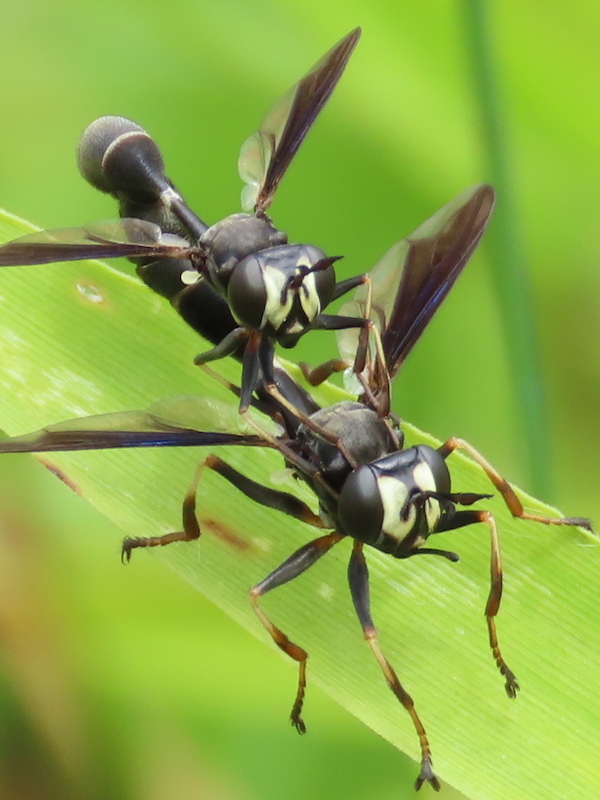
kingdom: Animalia
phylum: Arthropoda
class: Insecta
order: Diptera
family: Conopidae
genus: Physocephala
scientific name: Physocephala tibialis
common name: Common eastern physocephala
